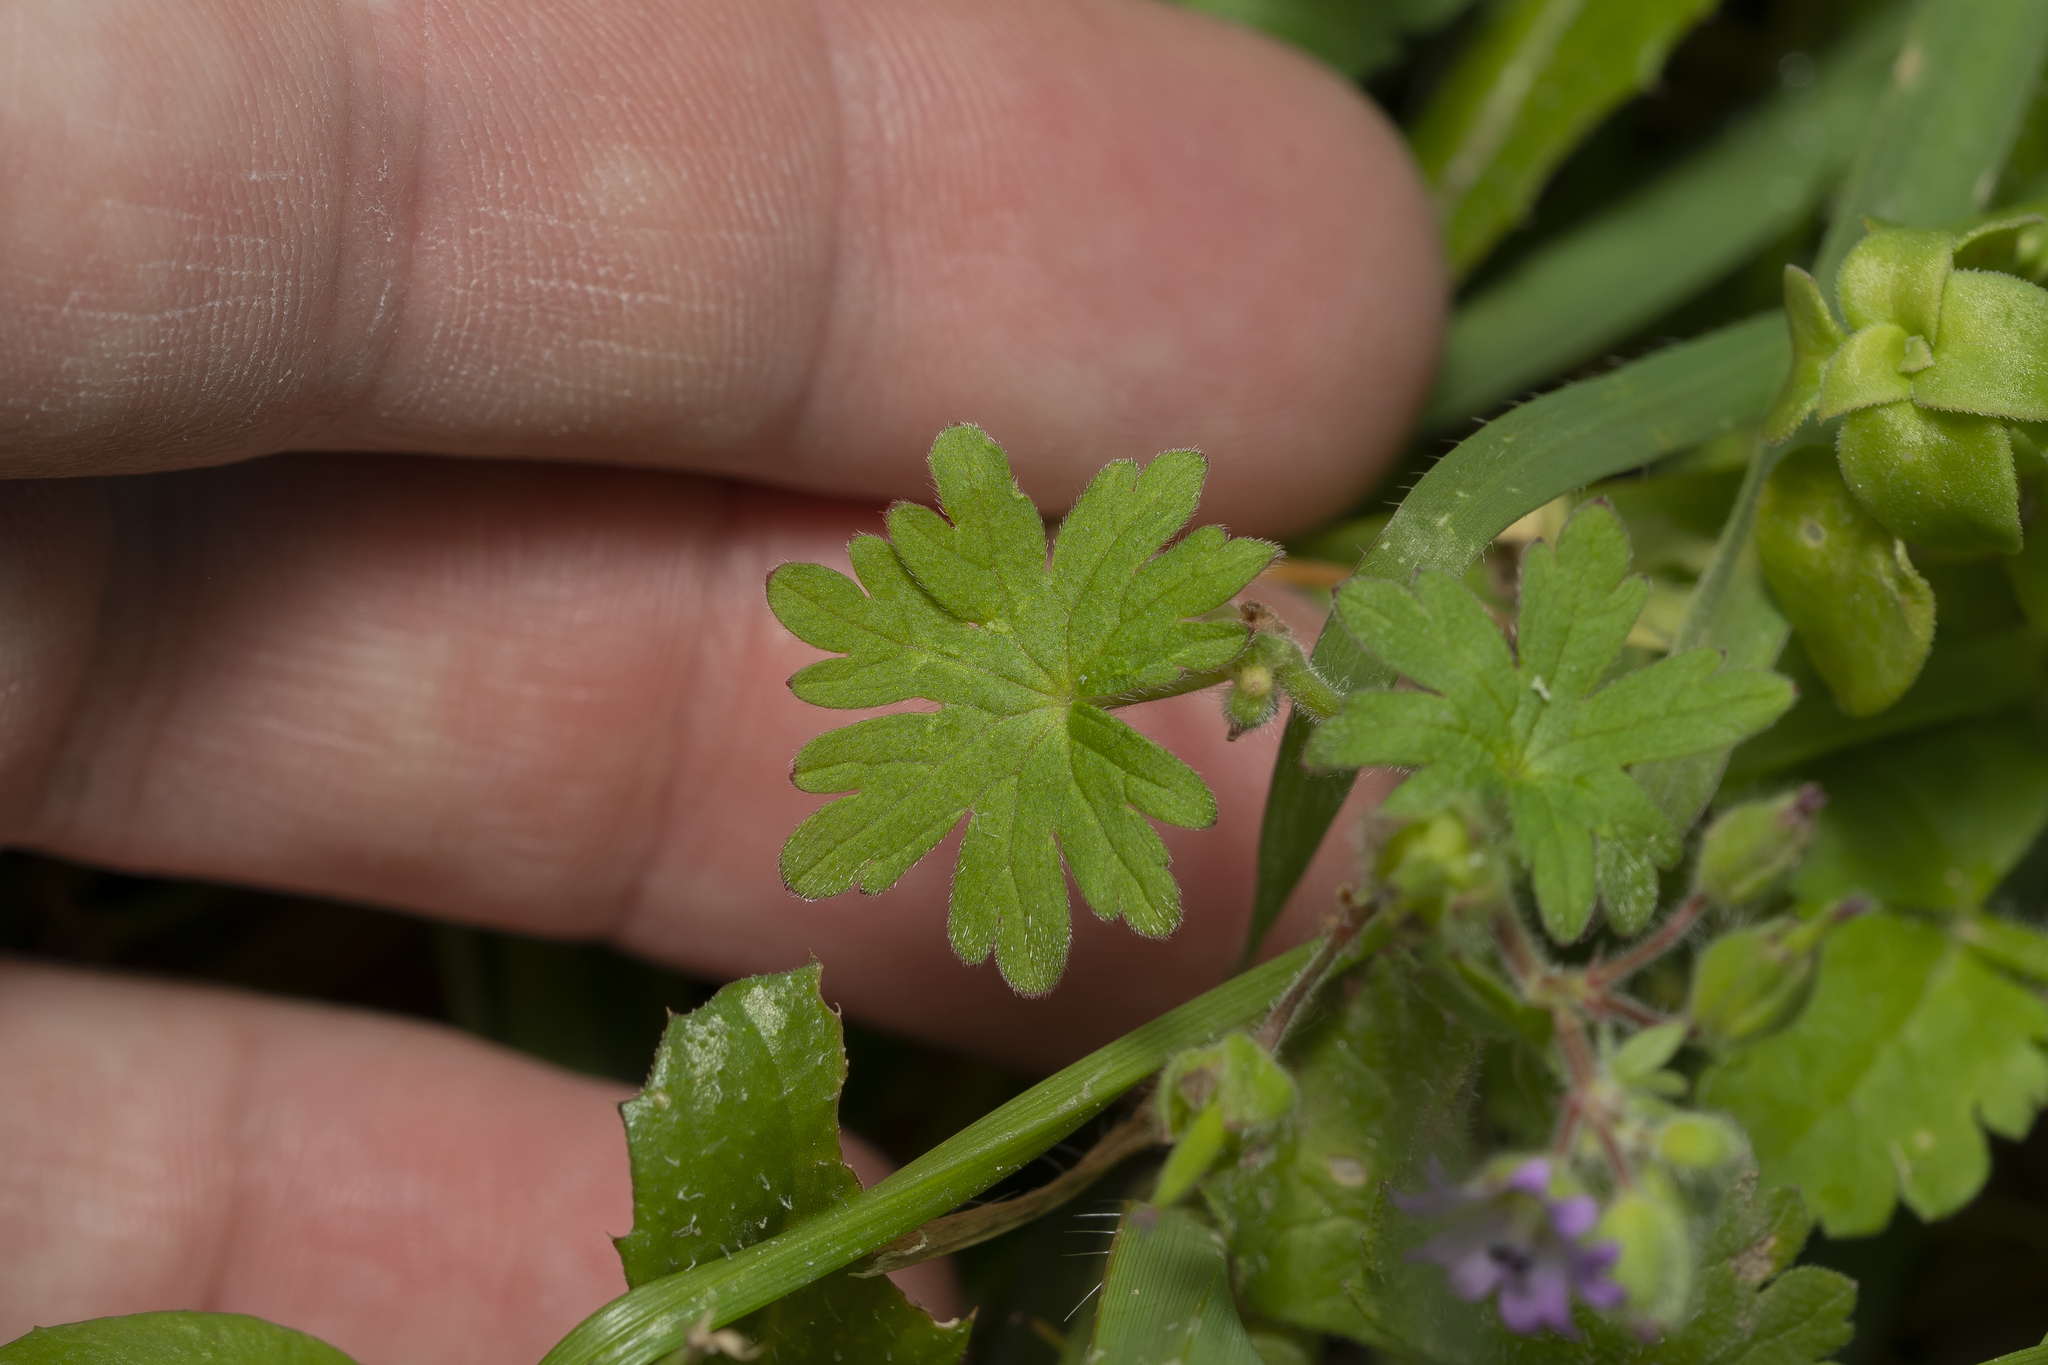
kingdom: Plantae
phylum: Tracheophyta
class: Magnoliopsida
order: Geraniales
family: Geraniaceae
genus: Geranium
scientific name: Geranium molle
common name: Dove's-foot crane's-bill
